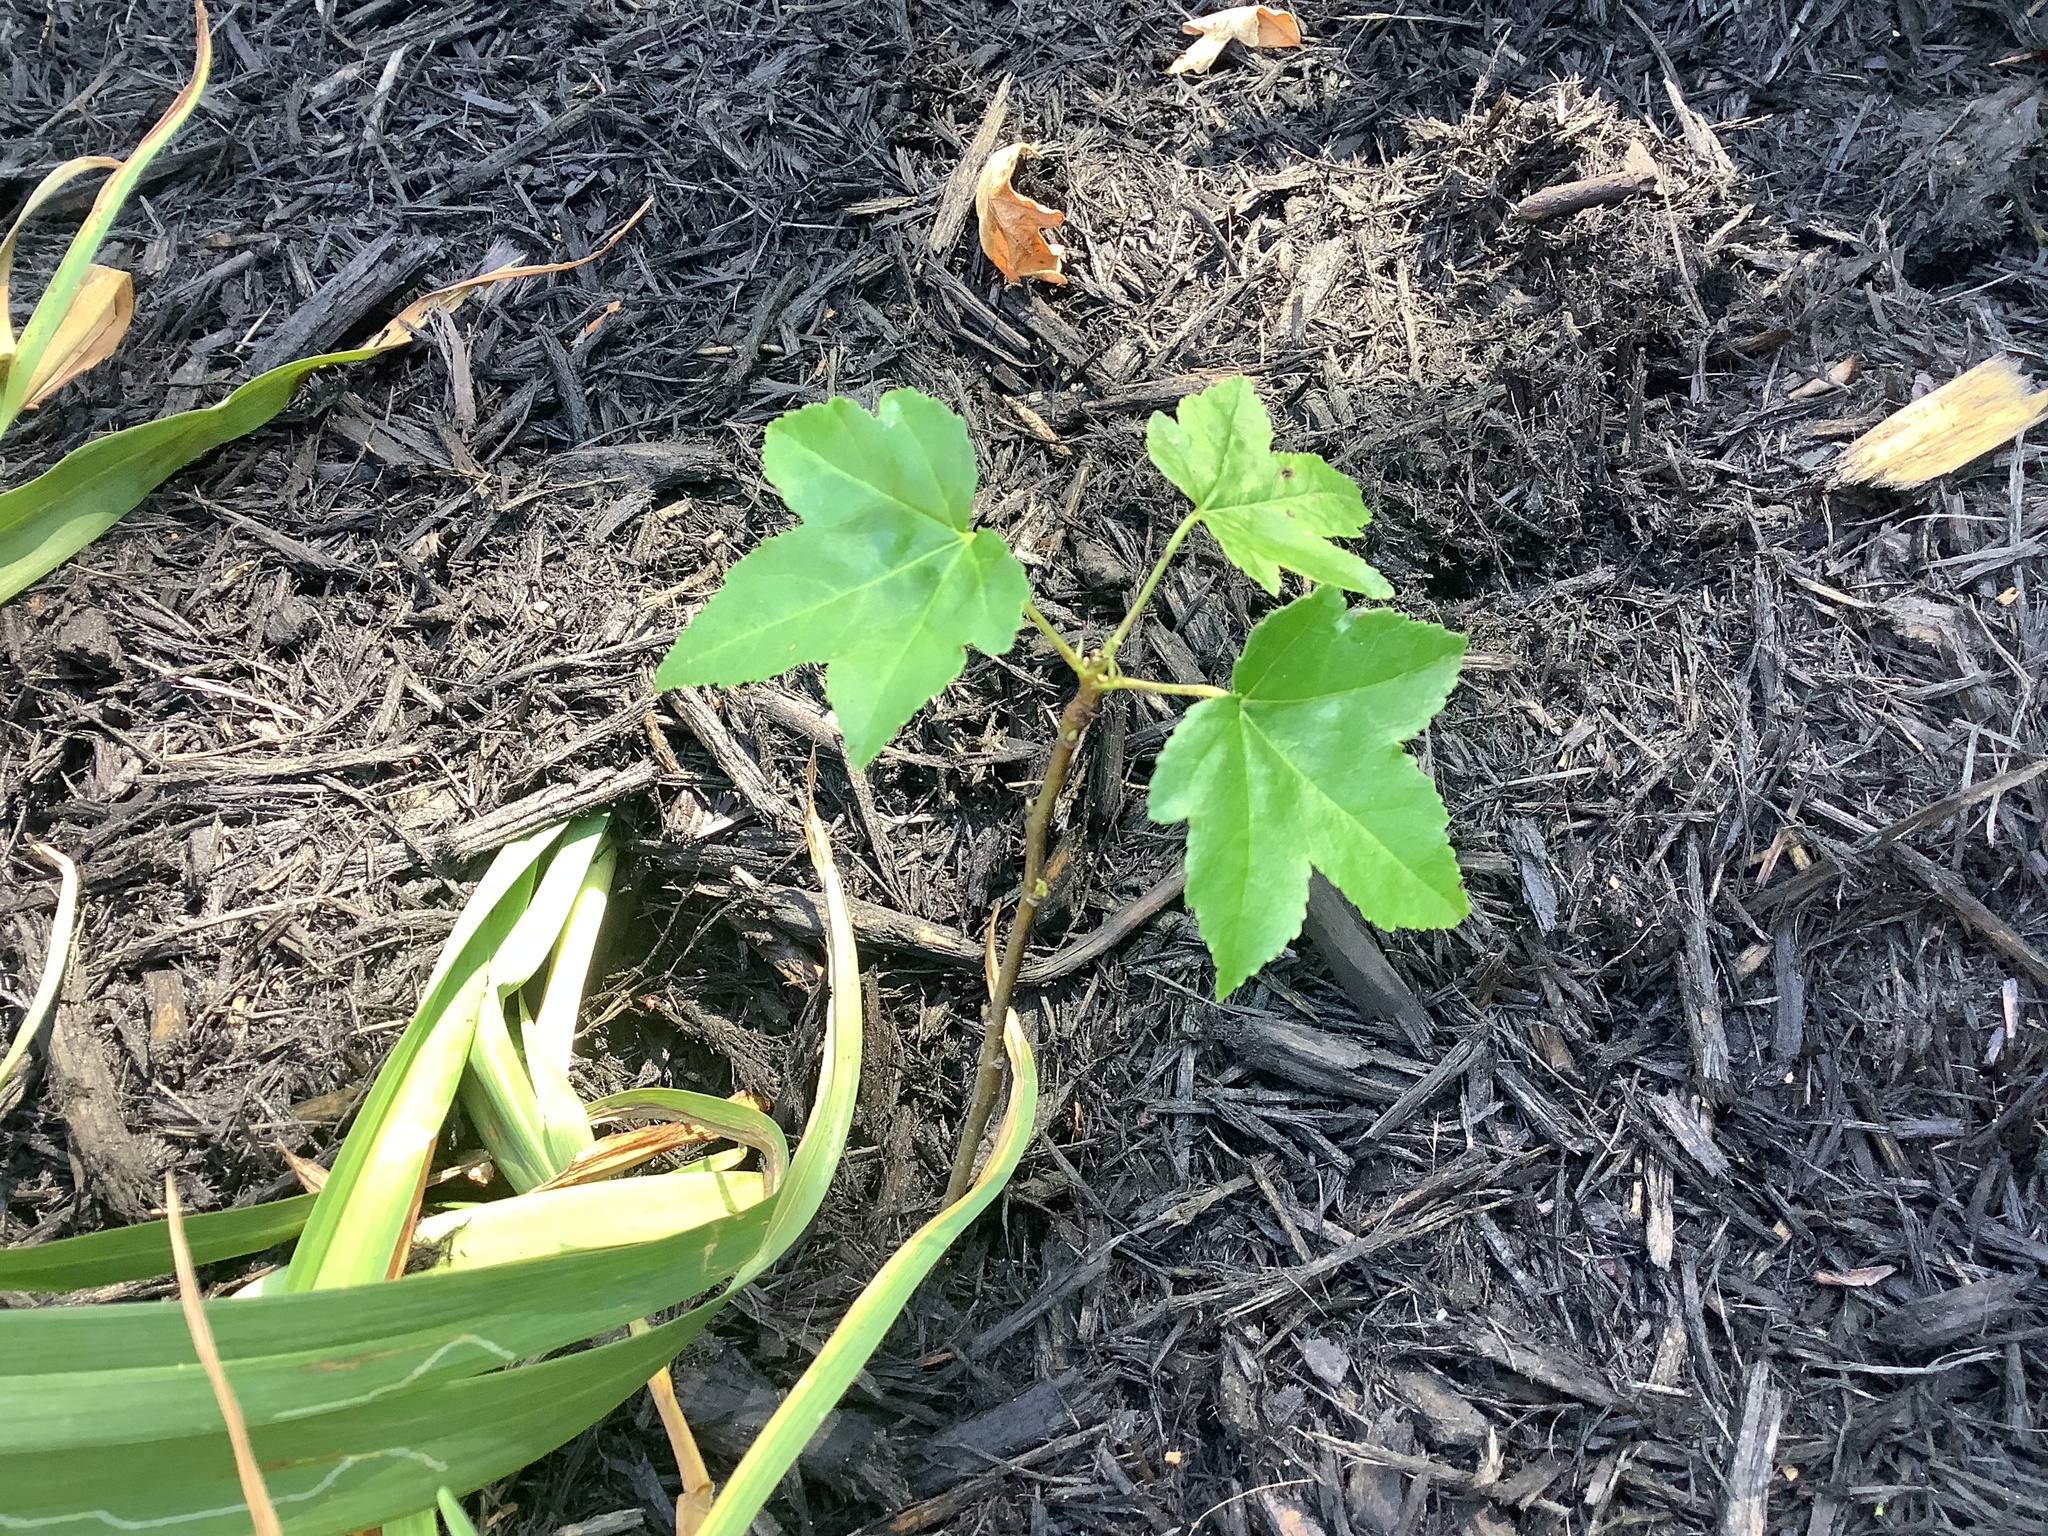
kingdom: Plantae
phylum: Tracheophyta
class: Magnoliopsida
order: Saxifragales
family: Altingiaceae
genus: Liquidambar
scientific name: Liquidambar styraciflua
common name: Sweet gum
